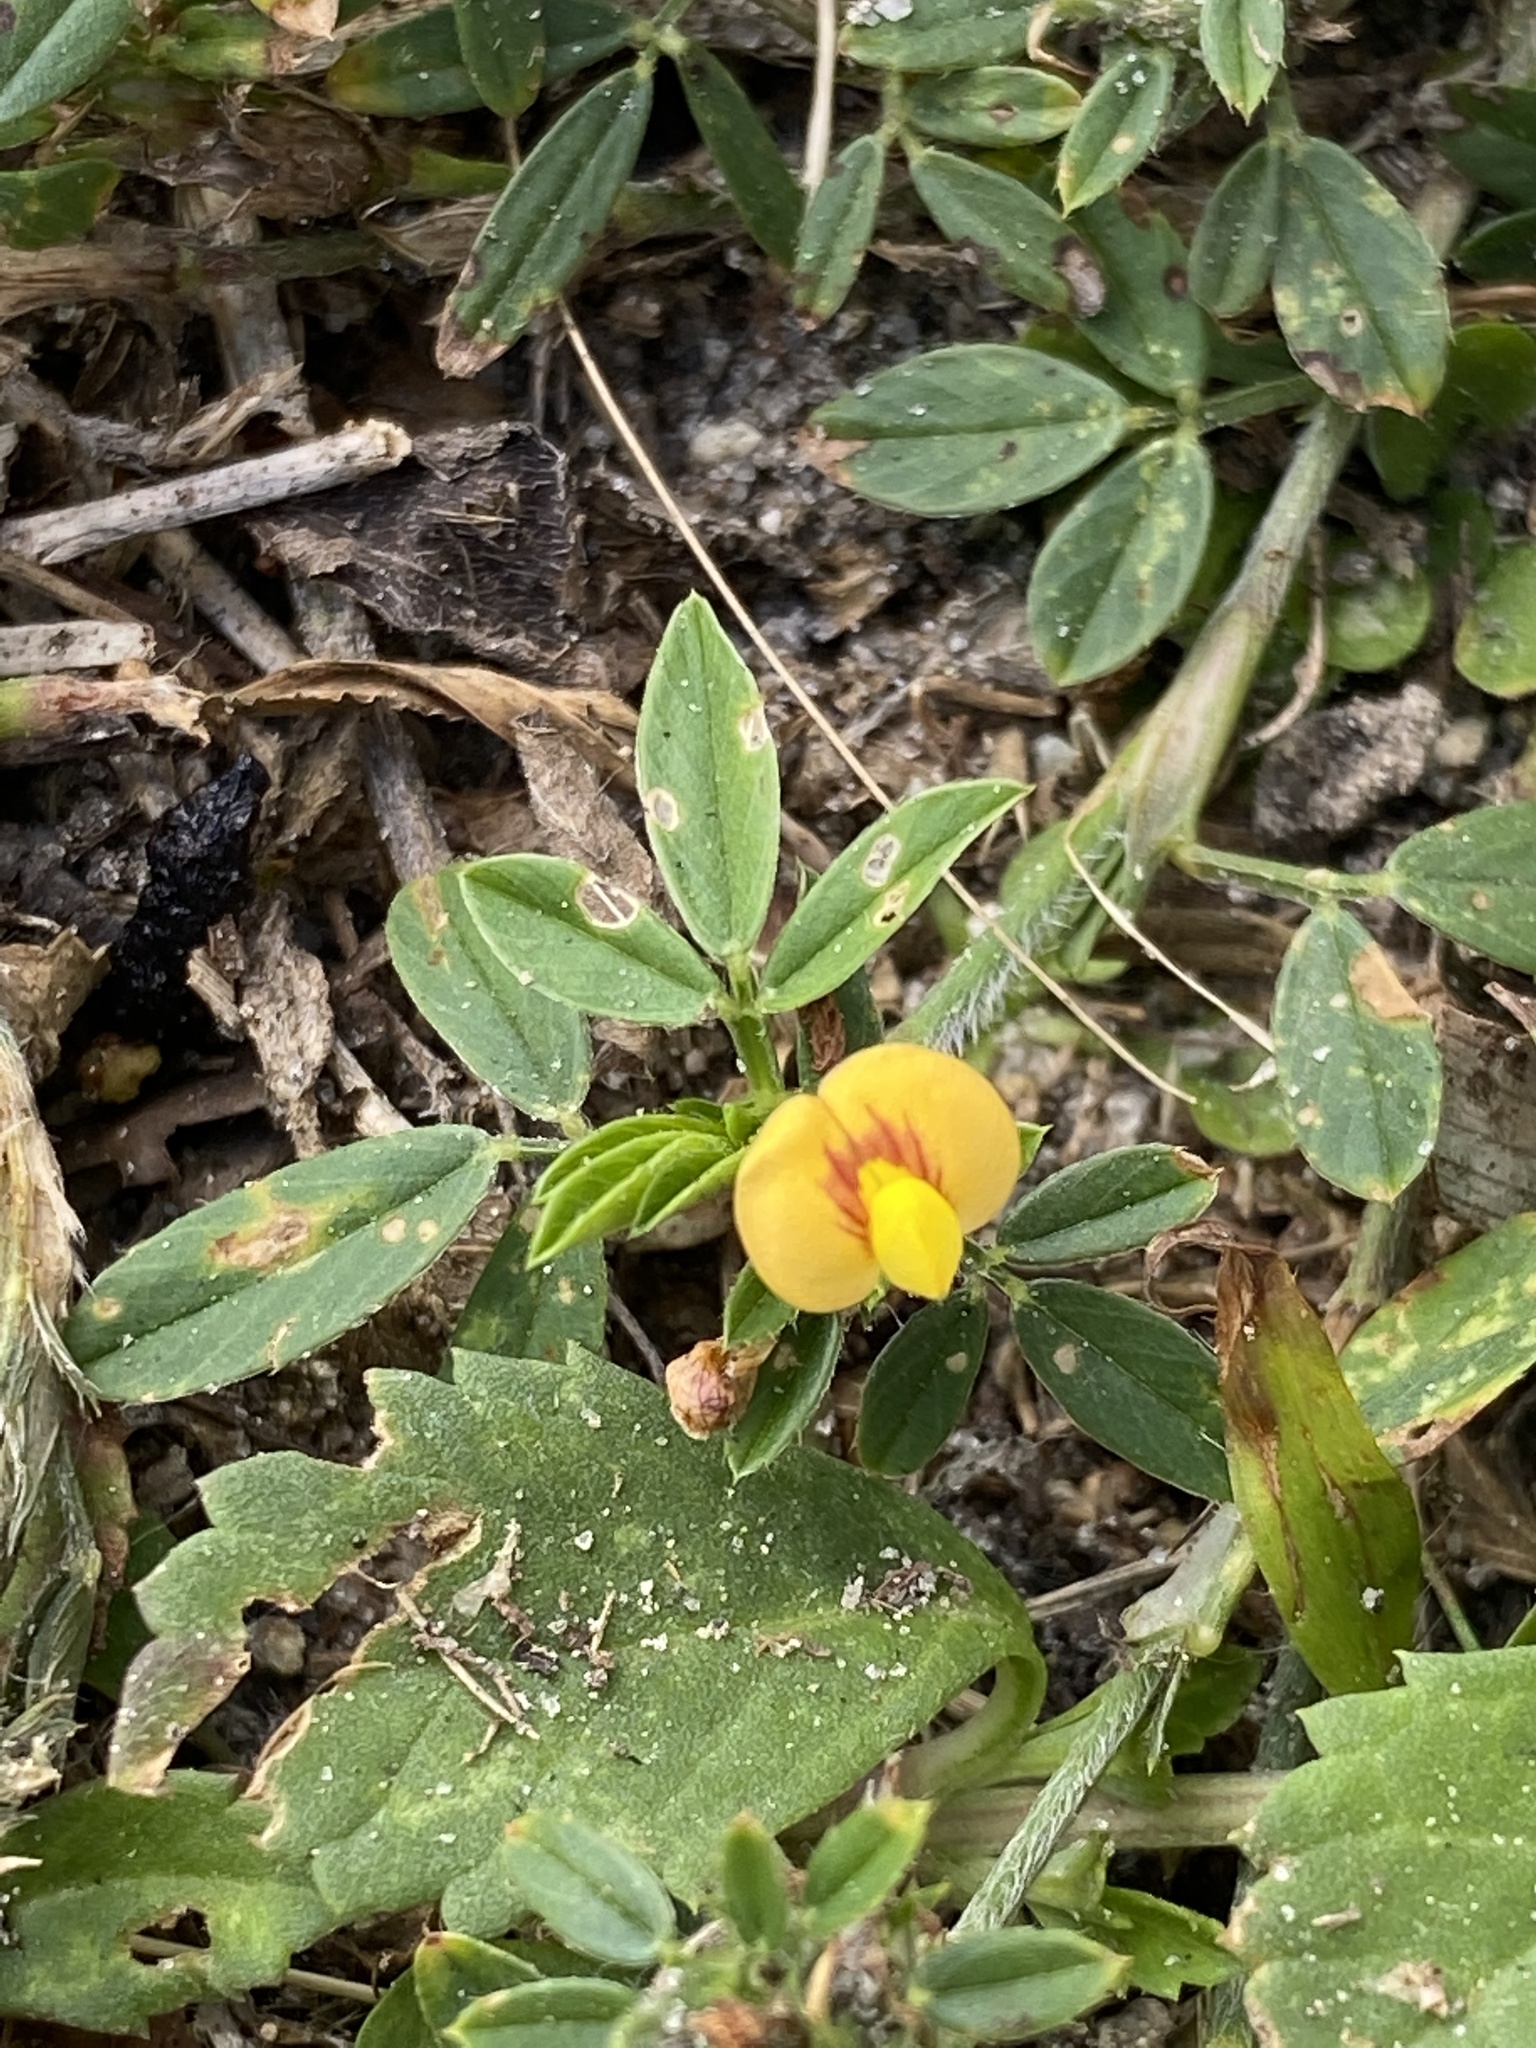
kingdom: Plantae
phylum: Tracheophyta
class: Magnoliopsida
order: Fabales
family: Fabaceae
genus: Stylosanthes
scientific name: Stylosanthes hamata
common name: Cheesytoes
